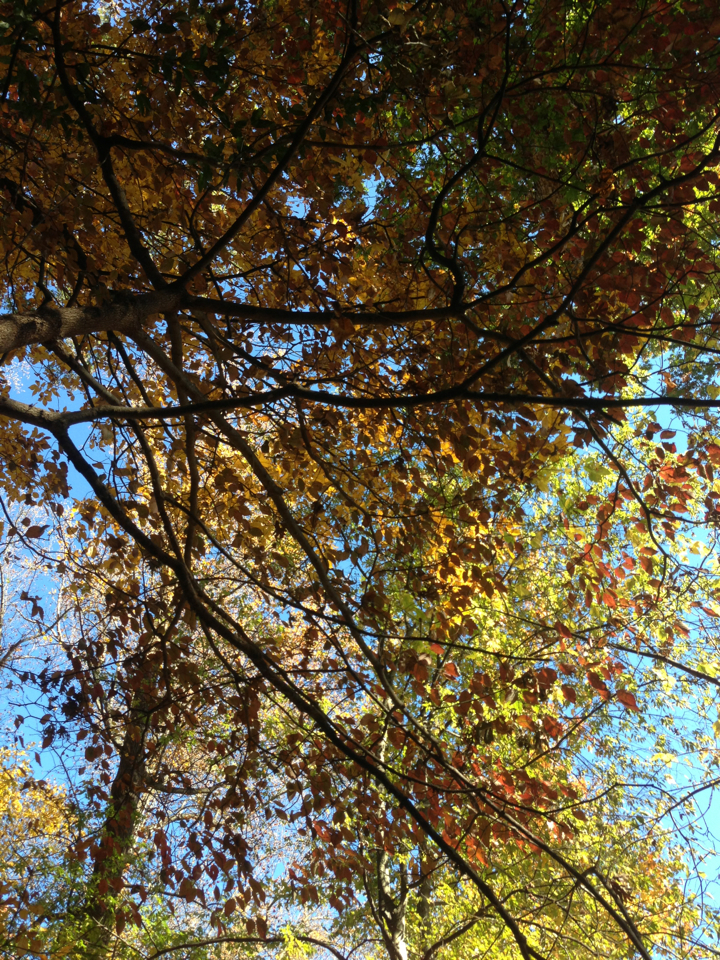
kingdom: Plantae
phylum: Tracheophyta
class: Magnoliopsida
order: Cornales
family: Cornaceae
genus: Cornus
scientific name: Cornus florida
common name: Flowering dogwood
